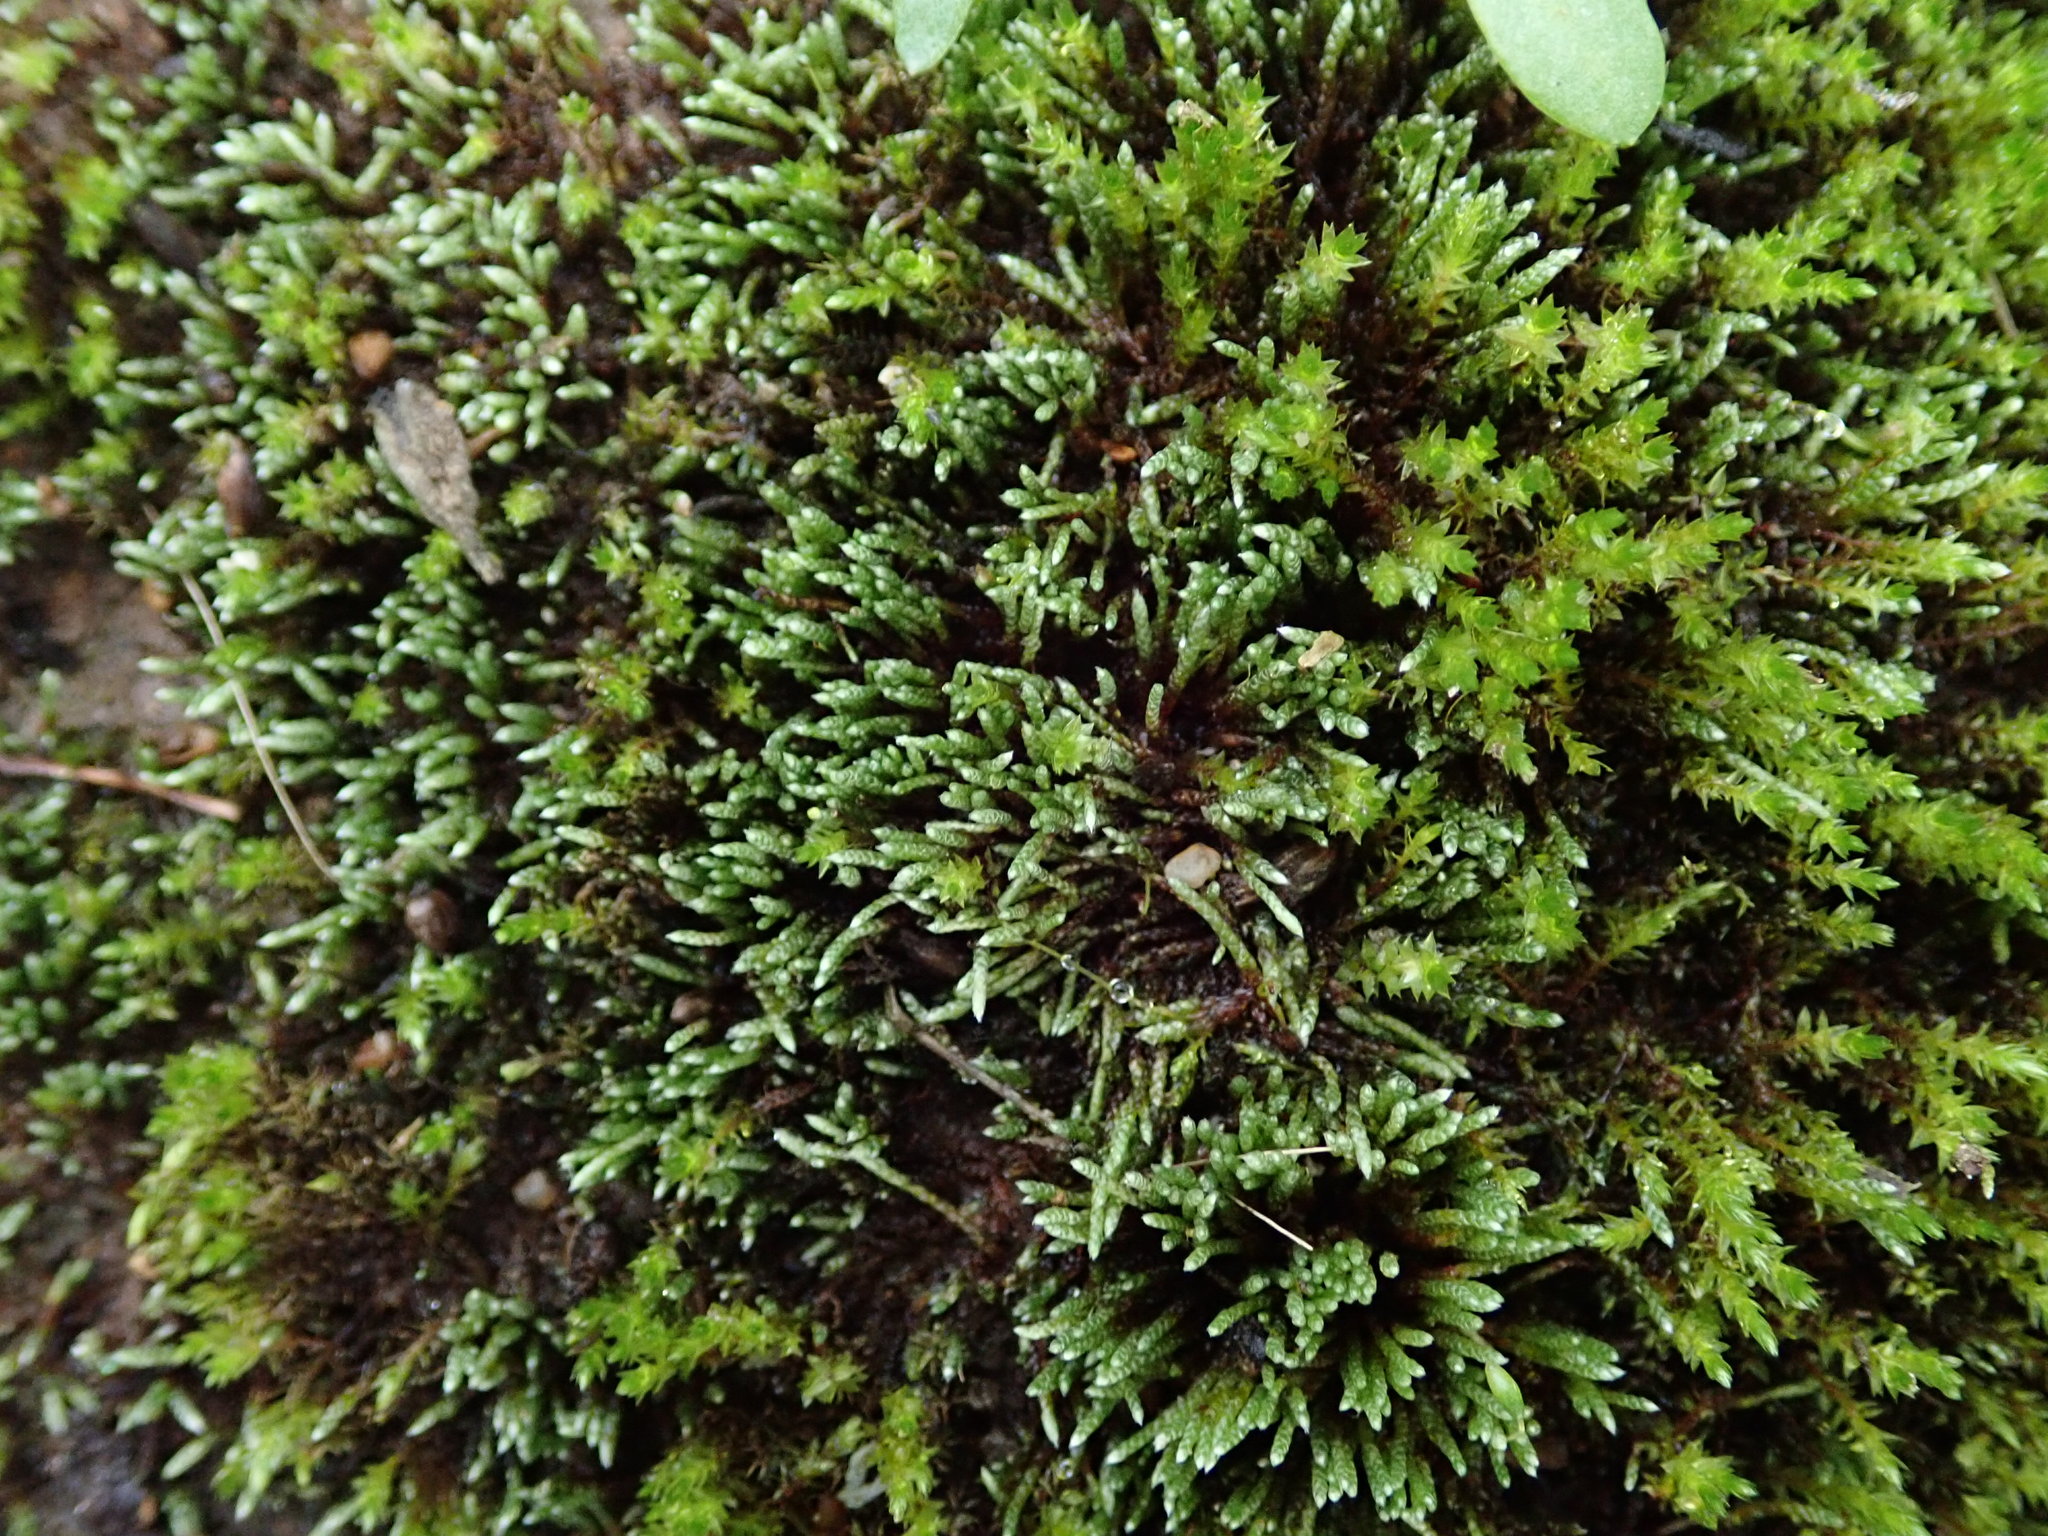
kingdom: Plantae
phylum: Bryophyta
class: Bryopsida
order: Bryales
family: Bryaceae
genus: Bryum
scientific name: Bryum argenteum
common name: Silver-moss
